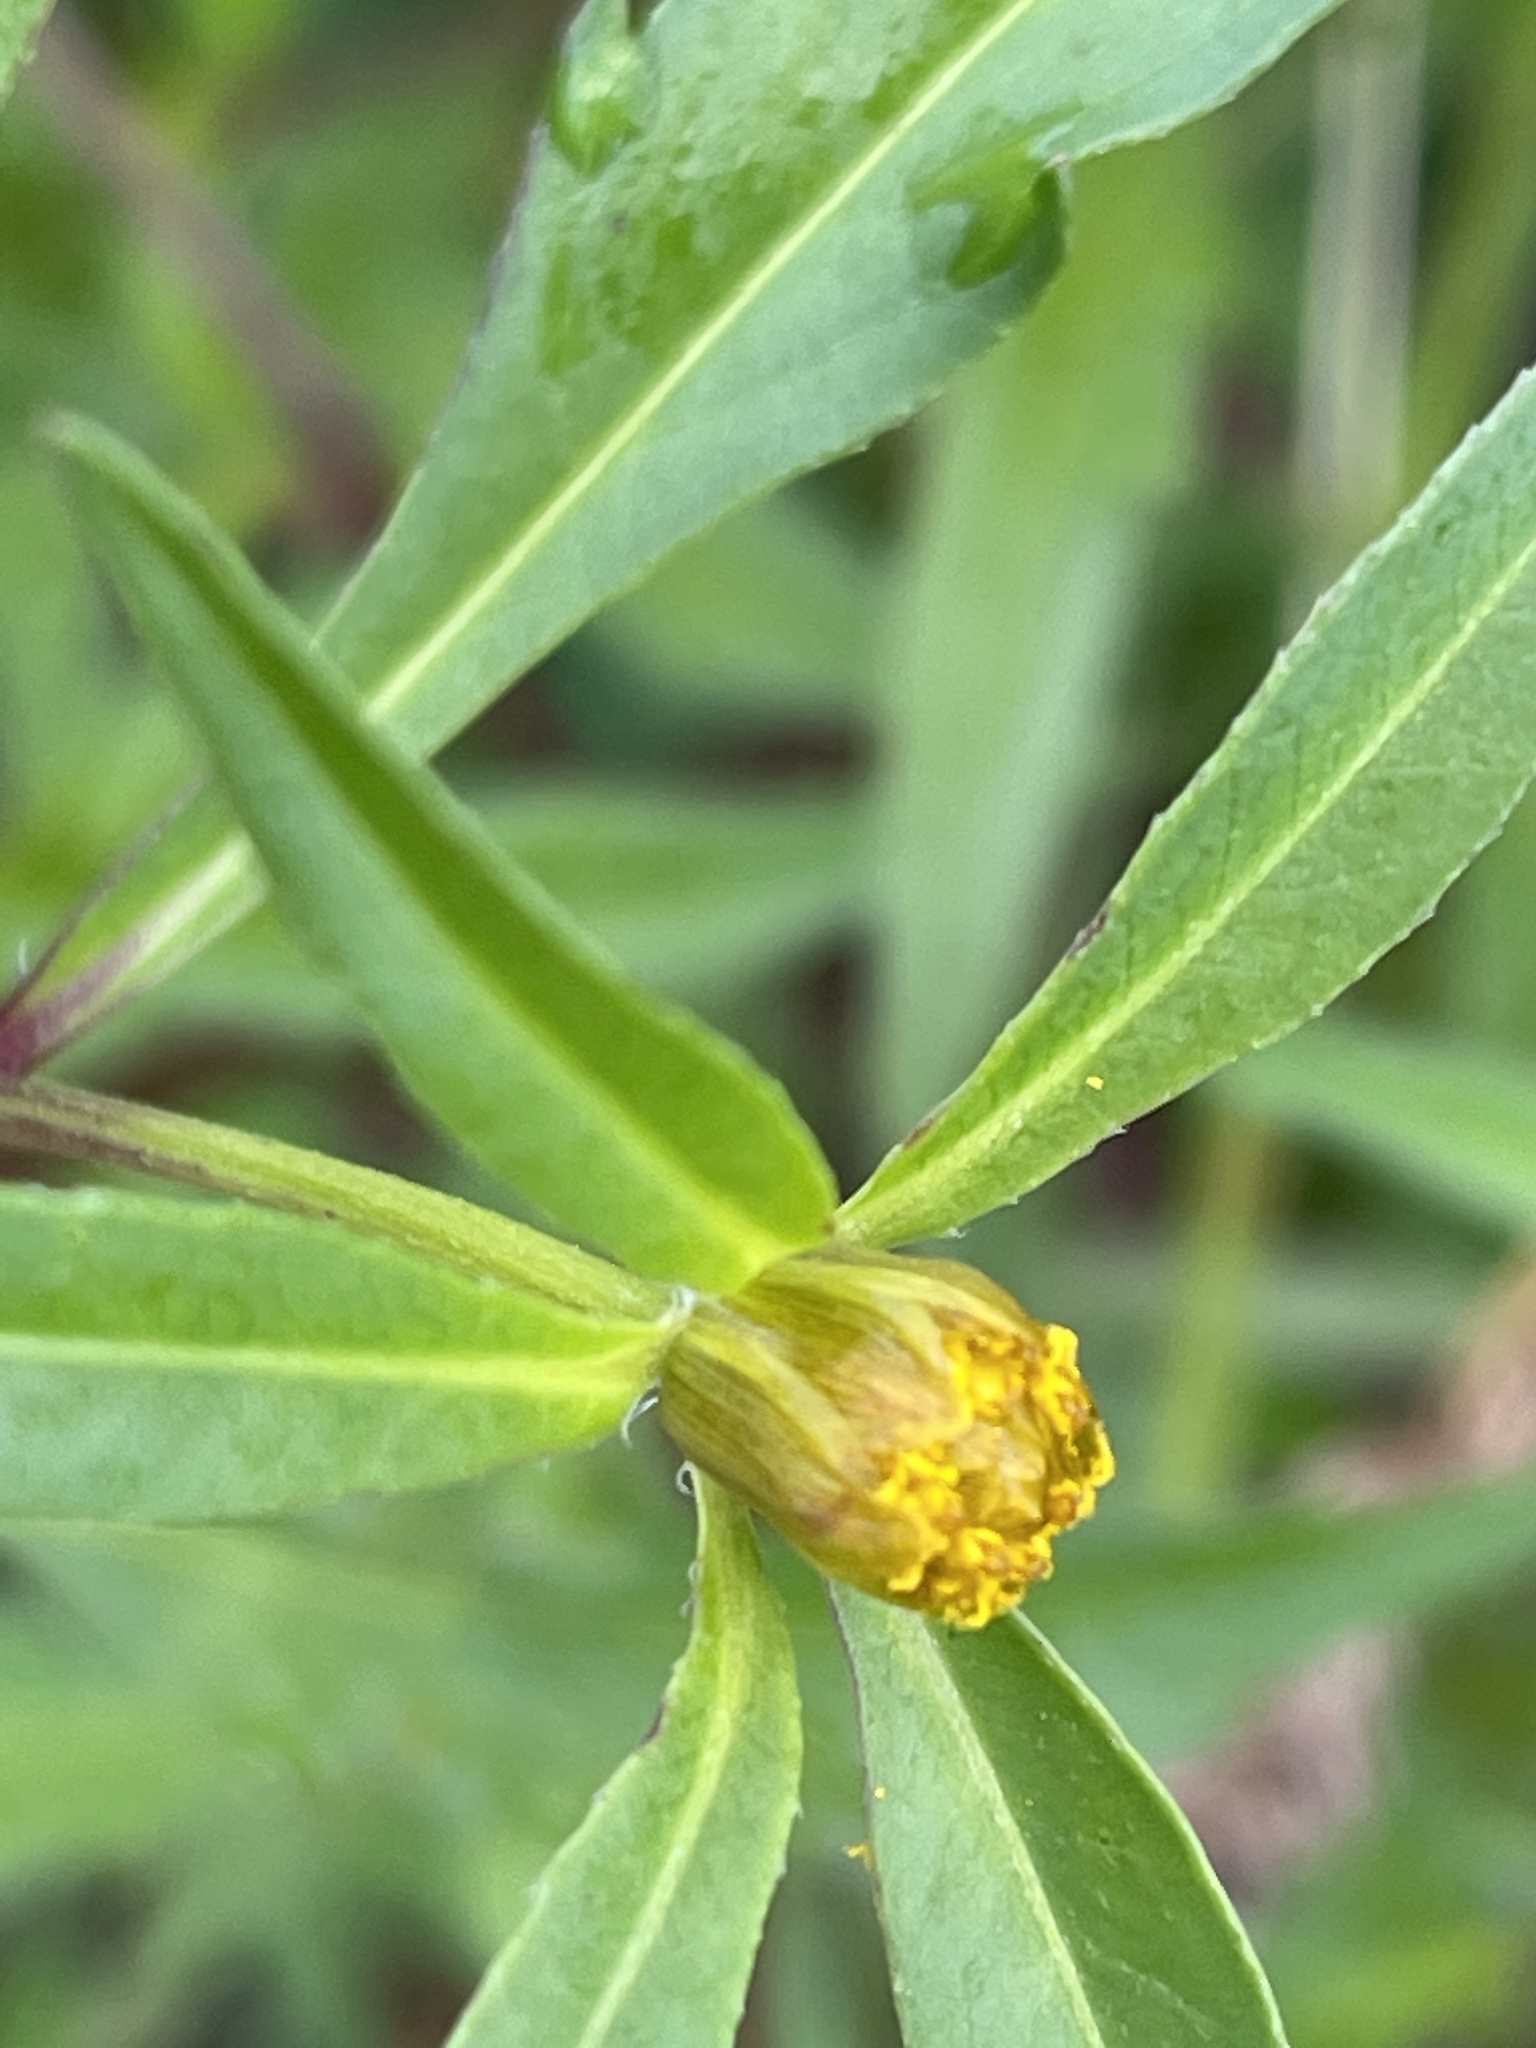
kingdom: Plantae
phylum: Tracheophyta
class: Magnoliopsida
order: Asterales
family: Asteraceae
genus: Bidens
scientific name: Bidens tripartita
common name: Trifid bur-marigold
